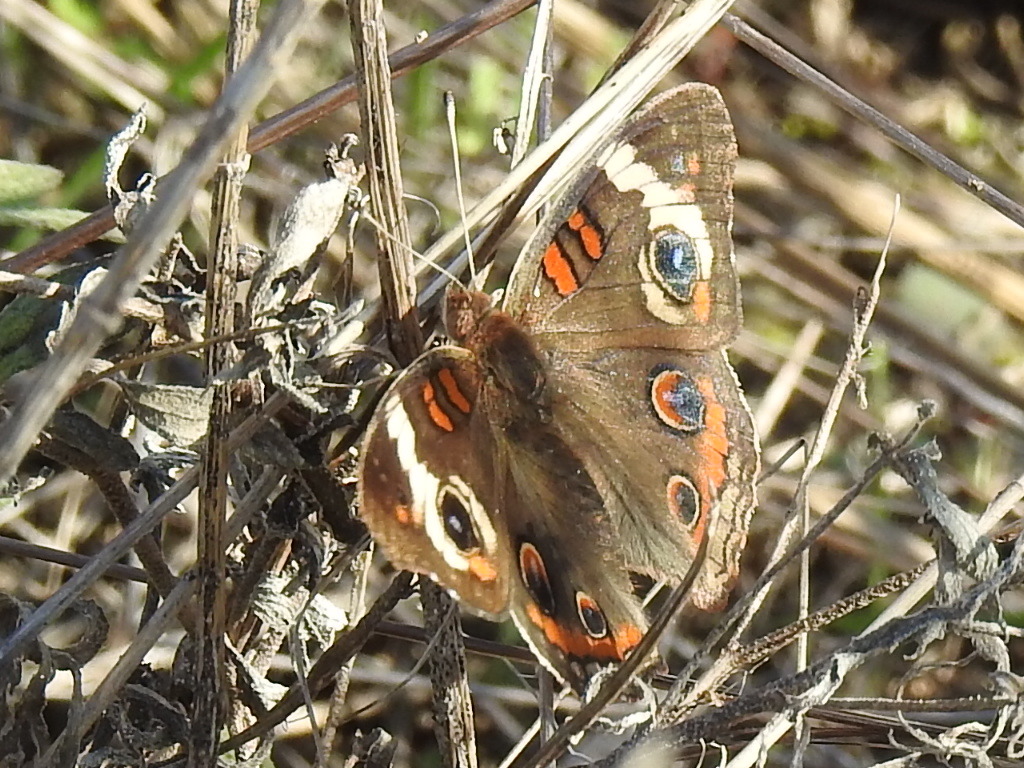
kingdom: Animalia
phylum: Arthropoda
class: Insecta
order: Lepidoptera
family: Nymphalidae
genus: Junonia
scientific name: Junonia coenia
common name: Common buckeye
